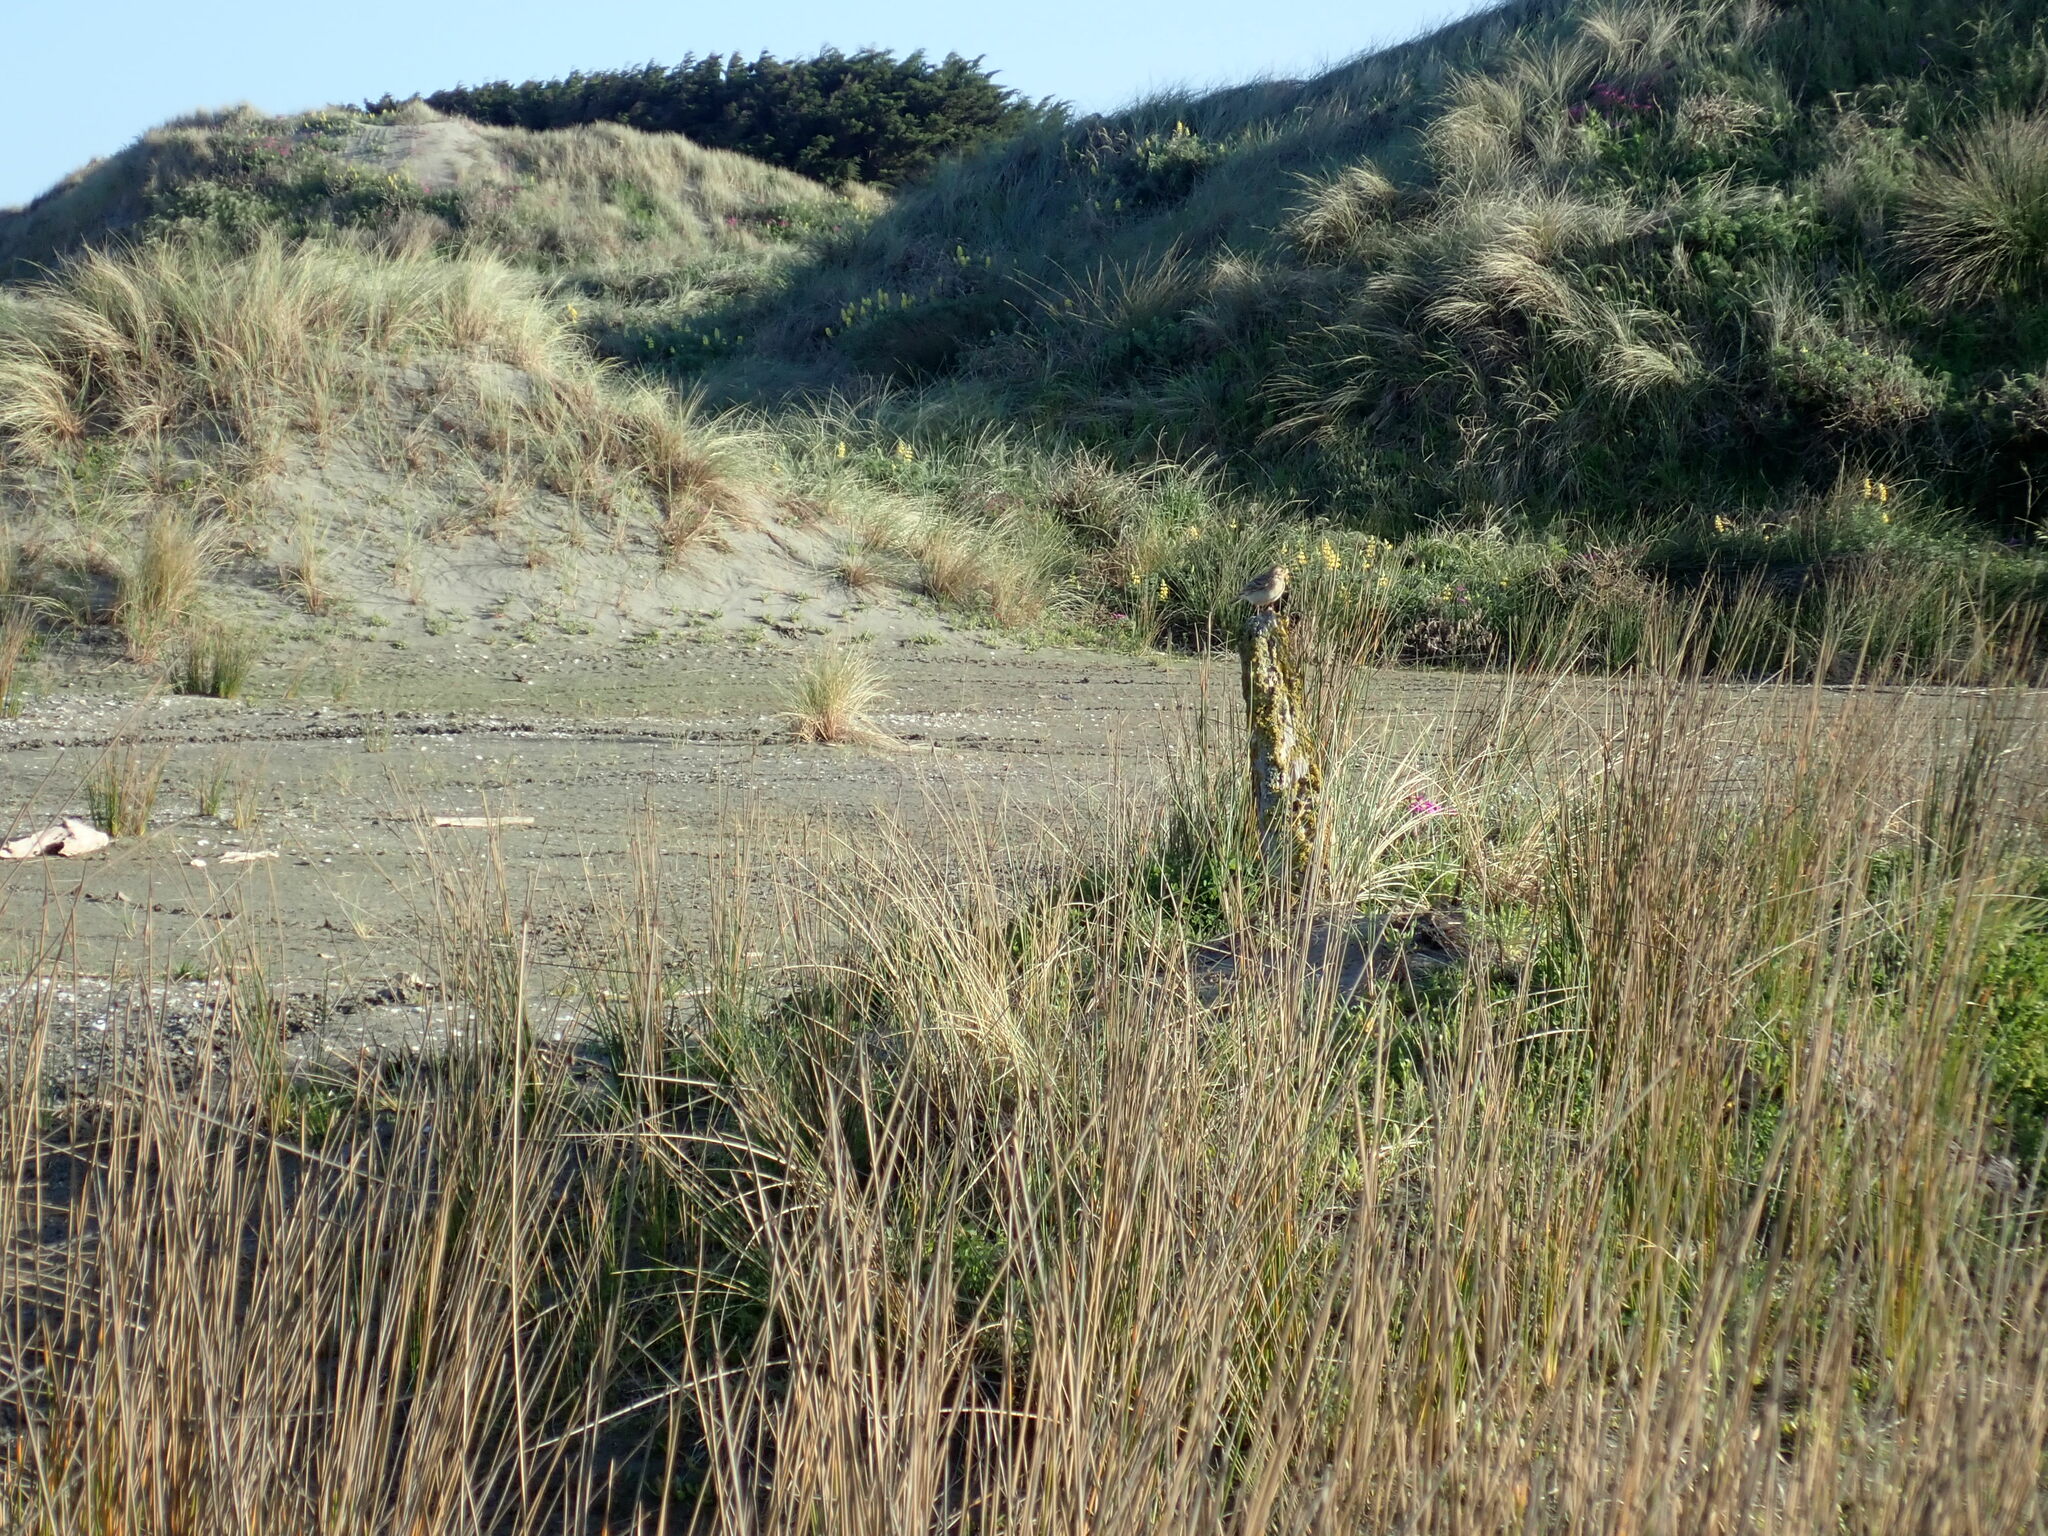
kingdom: Animalia
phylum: Chordata
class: Aves
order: Passeriformes
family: Motacillidae
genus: Anthus
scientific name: Anthus novaeseelandiae
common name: New zealand pipit
